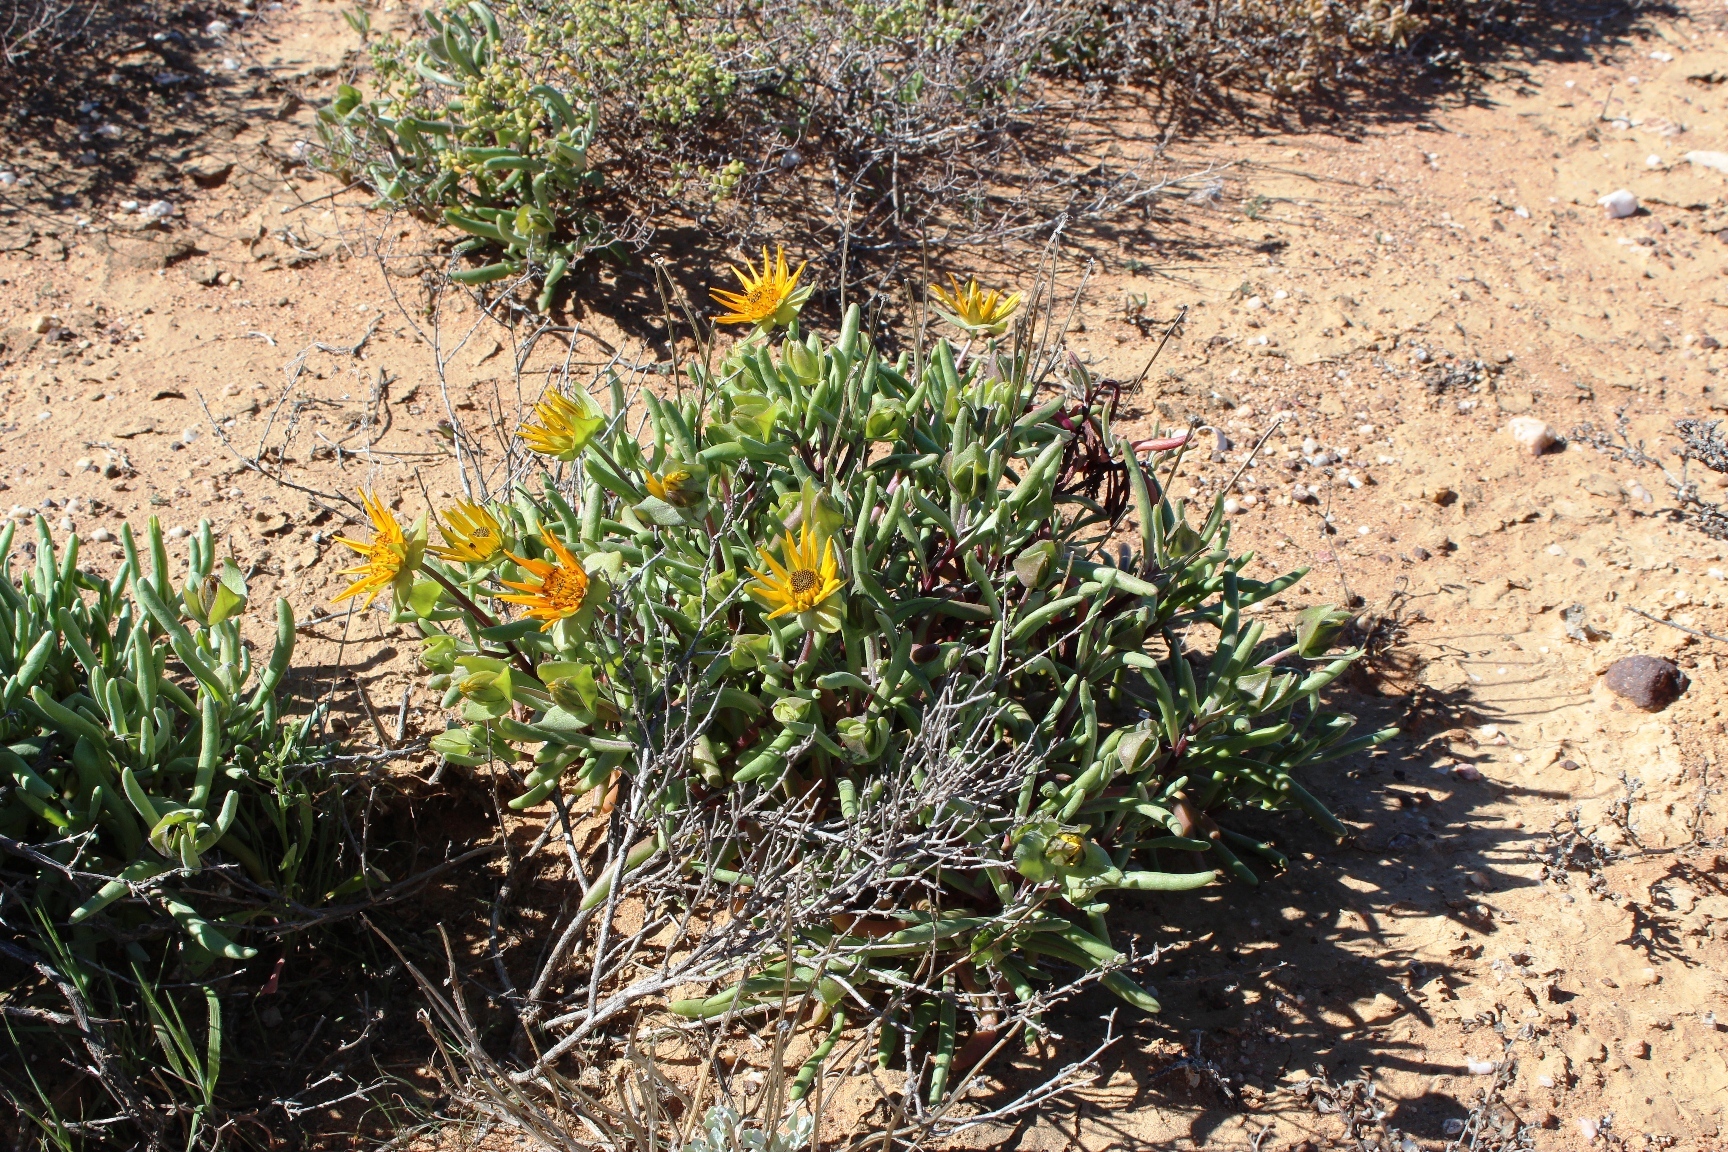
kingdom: Plantae
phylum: Tracheophyta
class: Magnoliopsida
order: Asterales
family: Asteraceae
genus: Didelta
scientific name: Didelta carnosa
